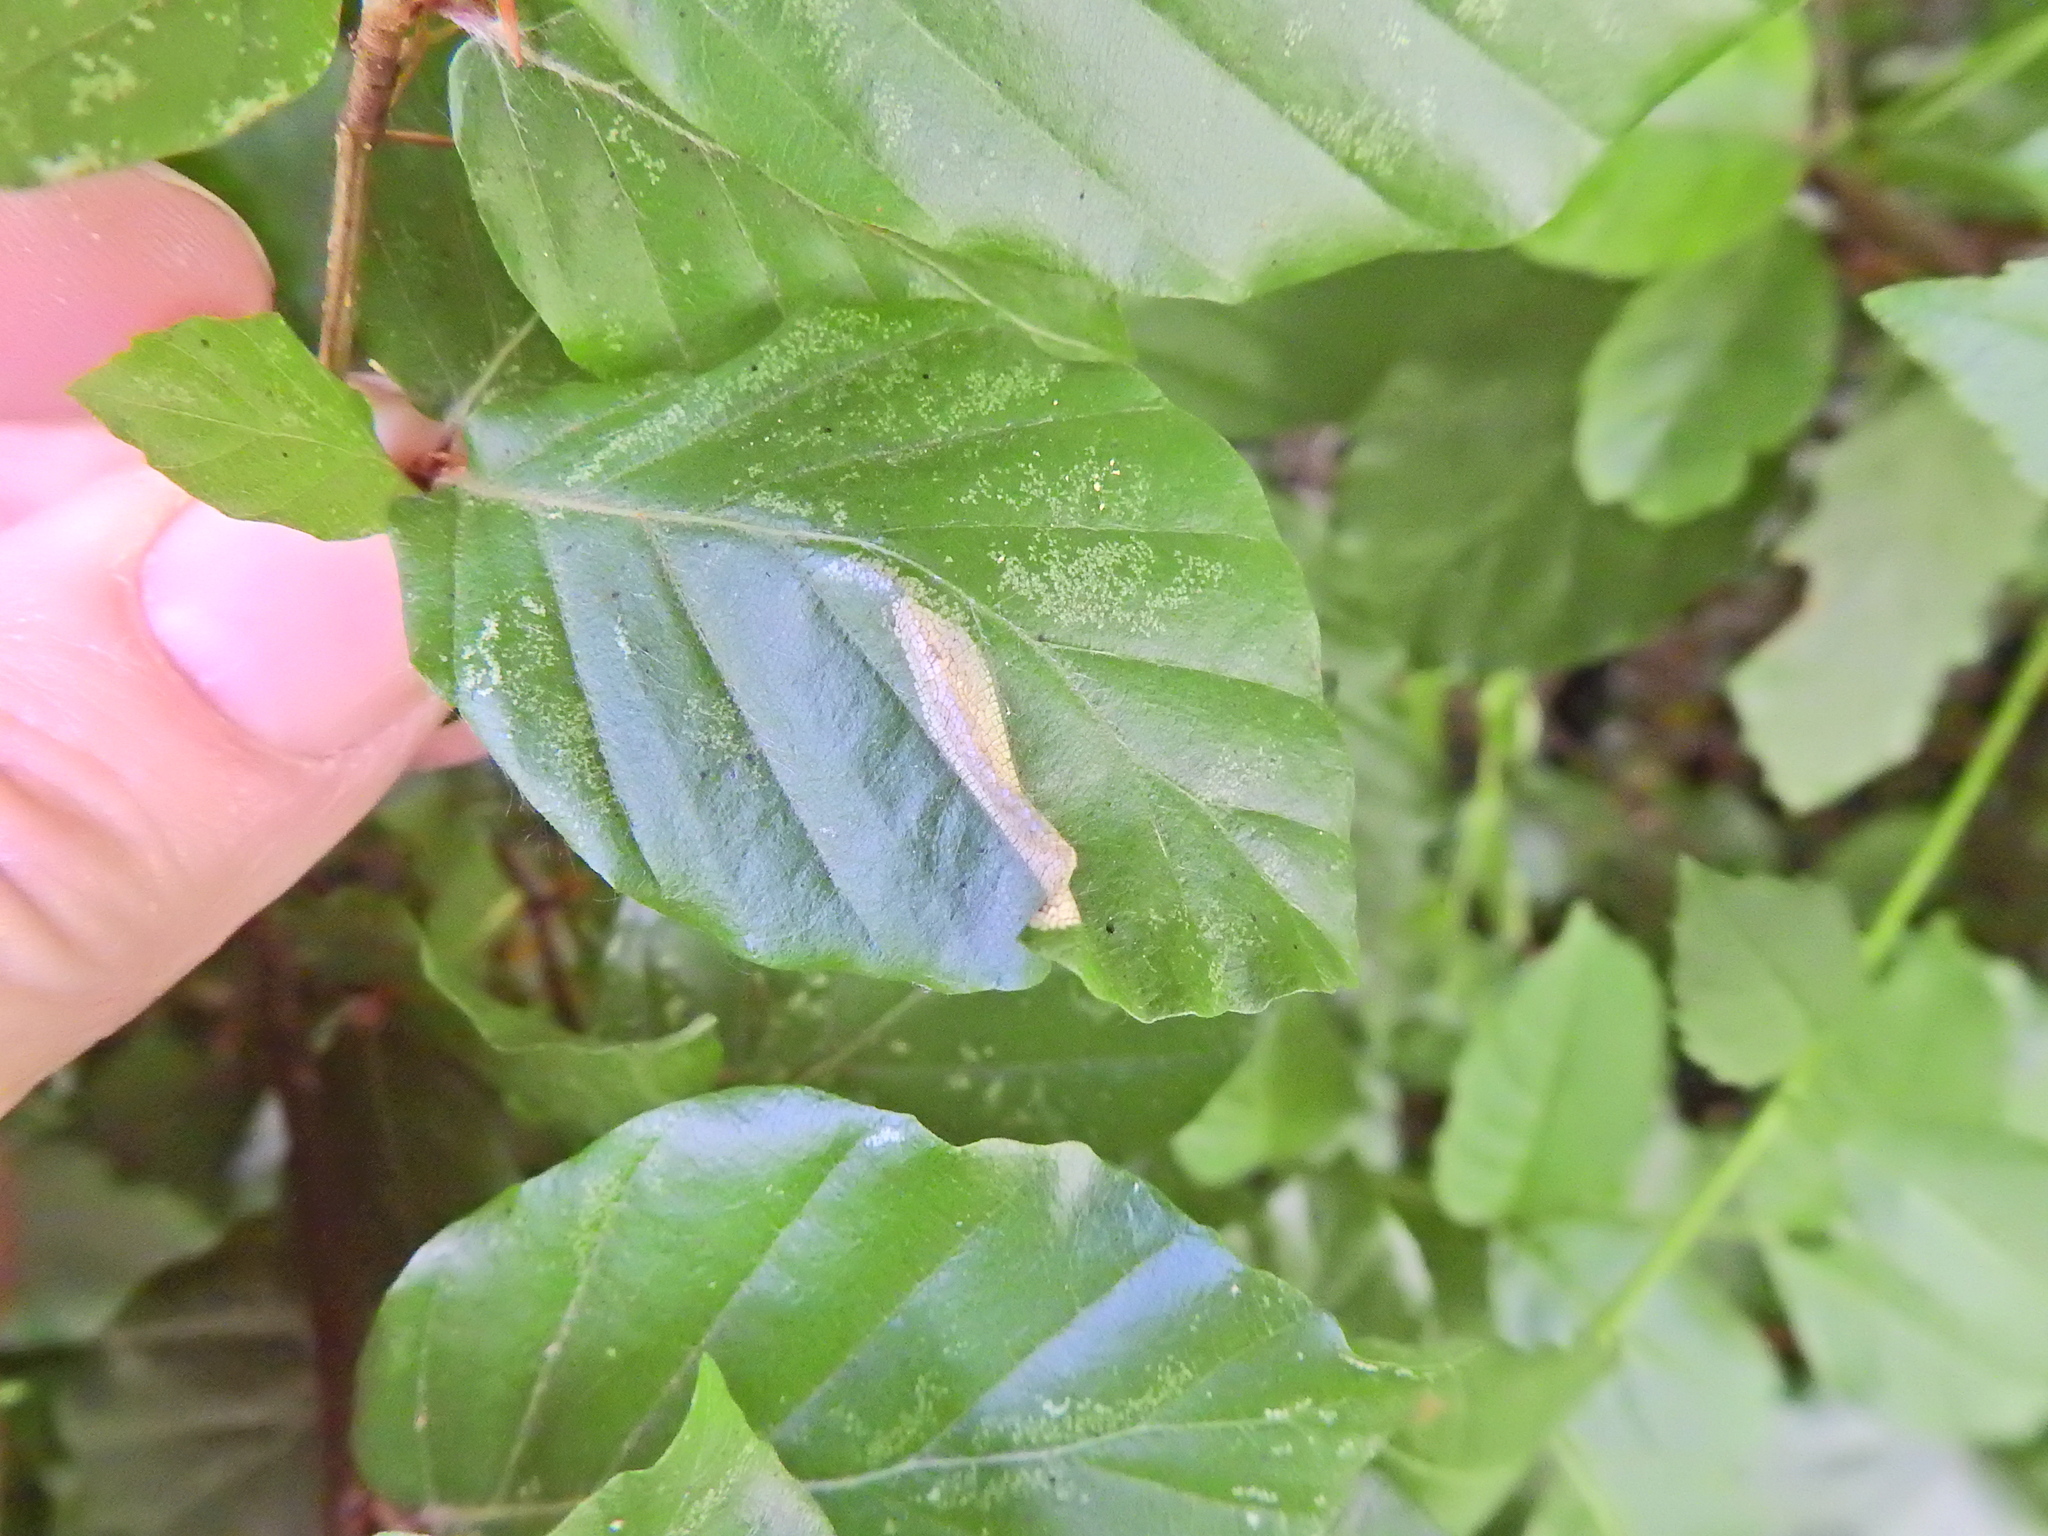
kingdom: Animalia
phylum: Arthropoda
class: Insecta
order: Lepidoptera
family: Gracillariidae
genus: Phyllonorycter
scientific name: Phyllonorycter maestingella
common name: Beech midget
